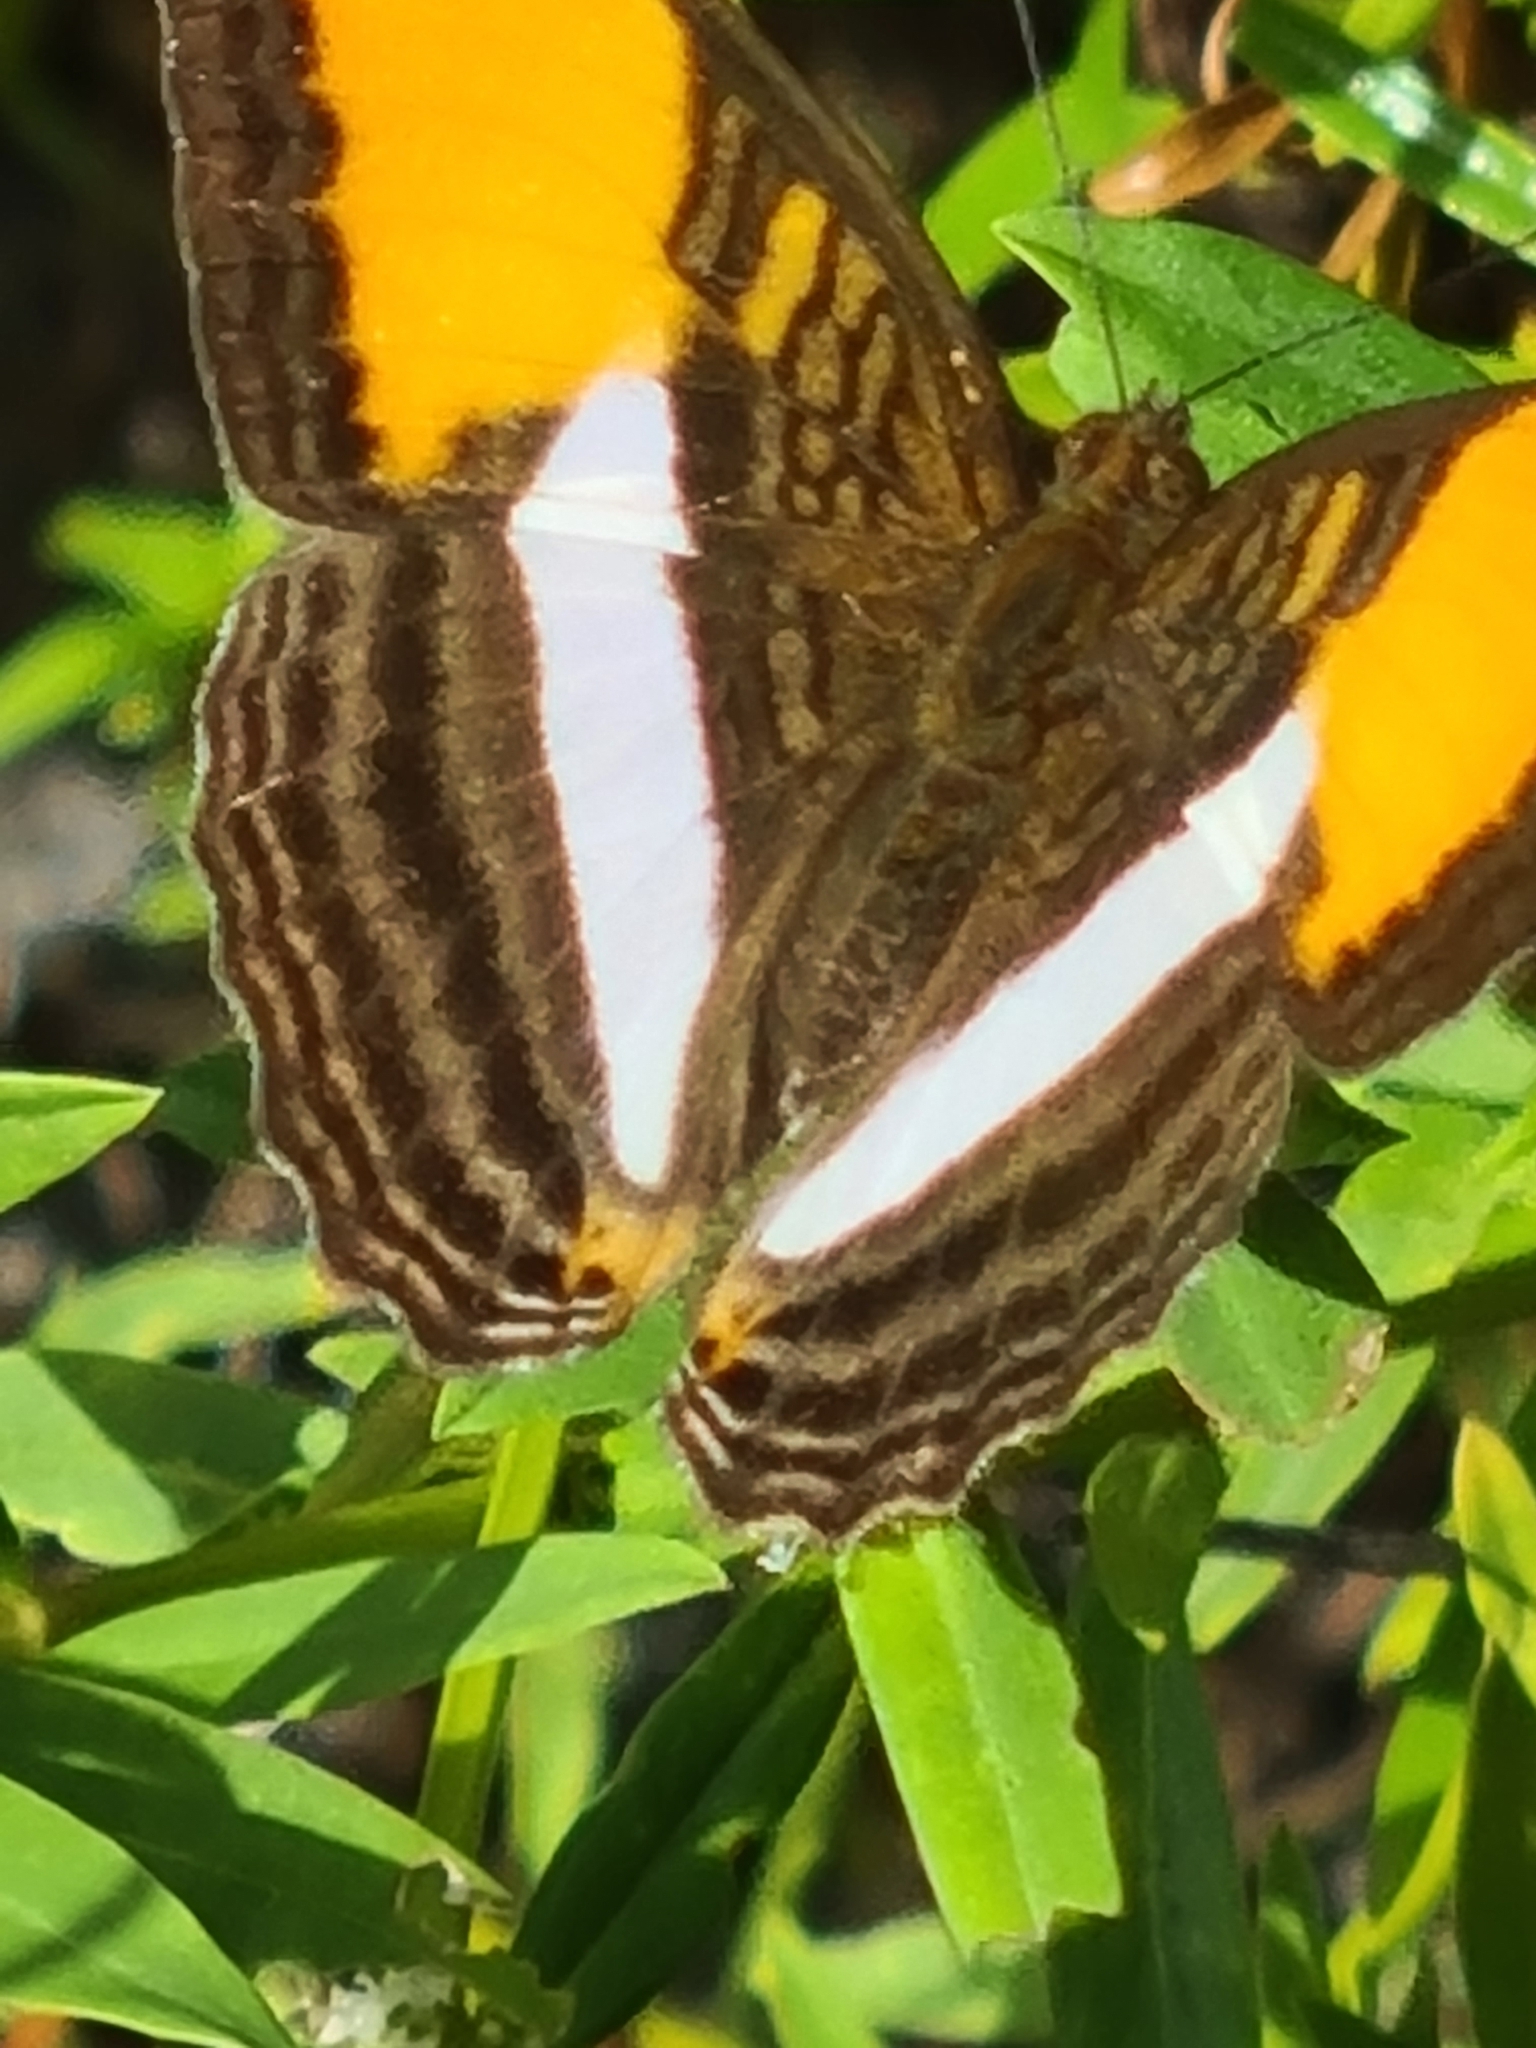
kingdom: Animalia
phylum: Arthropoda
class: Insecta
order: Lepidoptera
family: Nymphalidae
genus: Limenitis
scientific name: Limenitis cytherea
